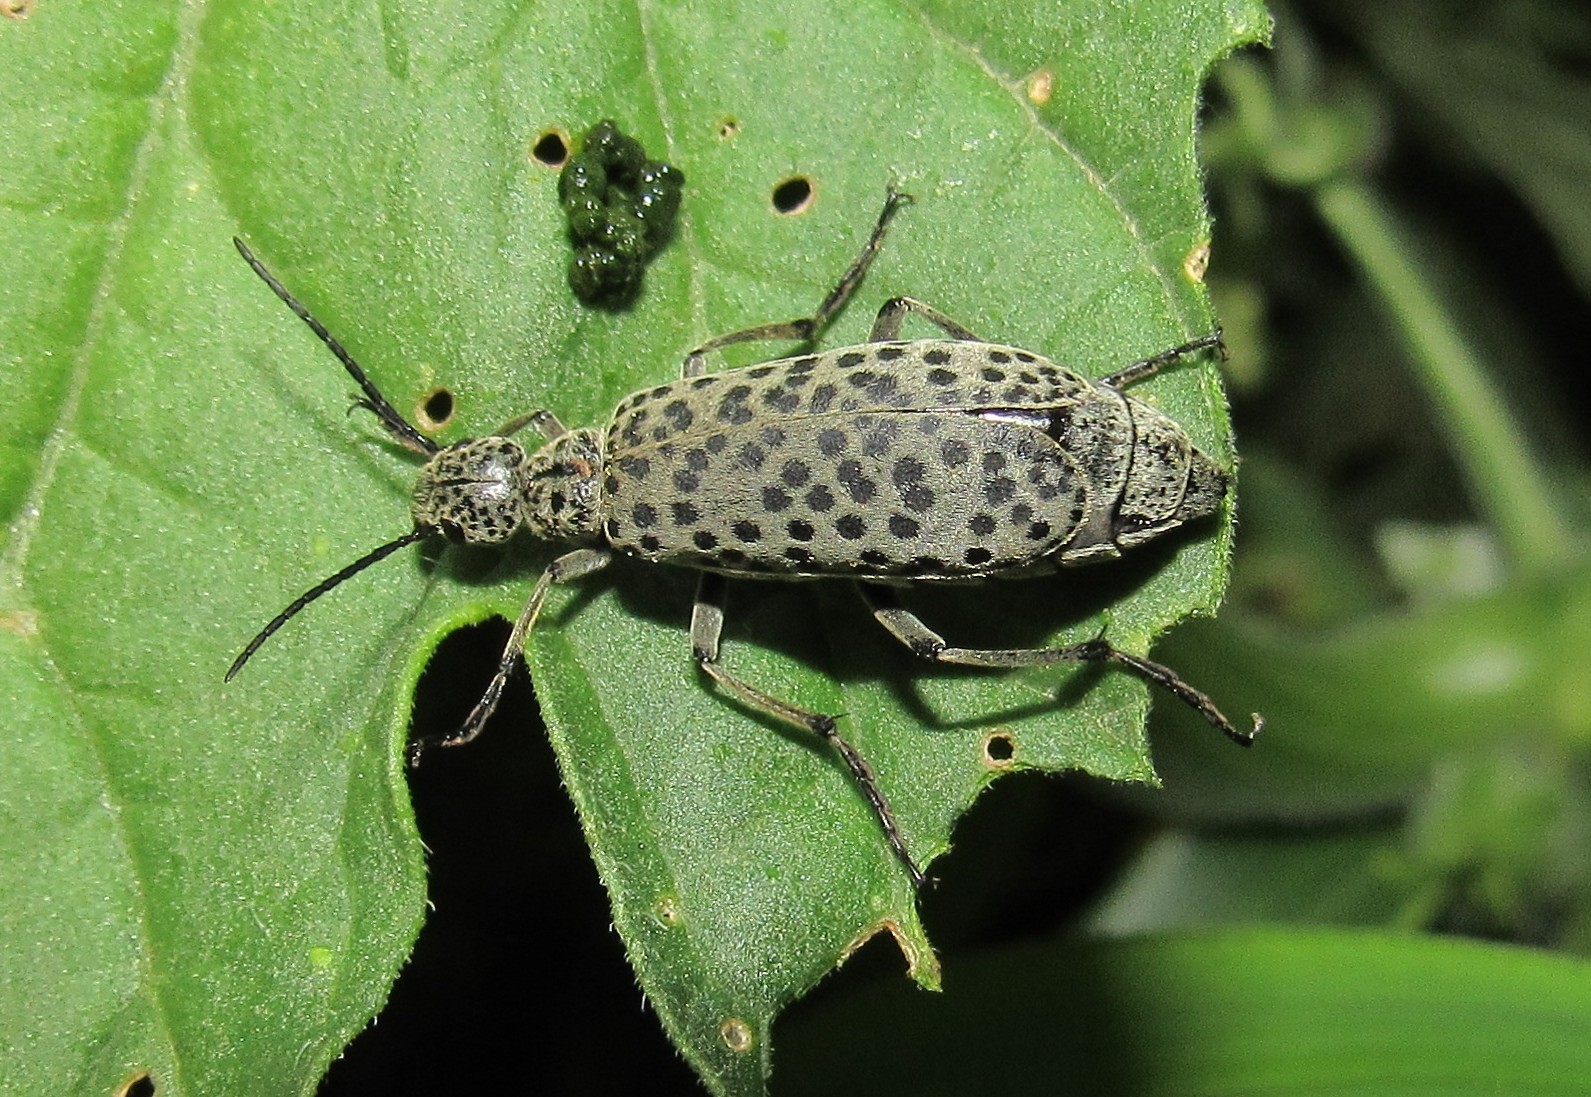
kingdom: Animalia
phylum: Arthropoda
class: Insecta
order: Coleoptera
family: Meloidae
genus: Epicauta
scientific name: Epicauta
